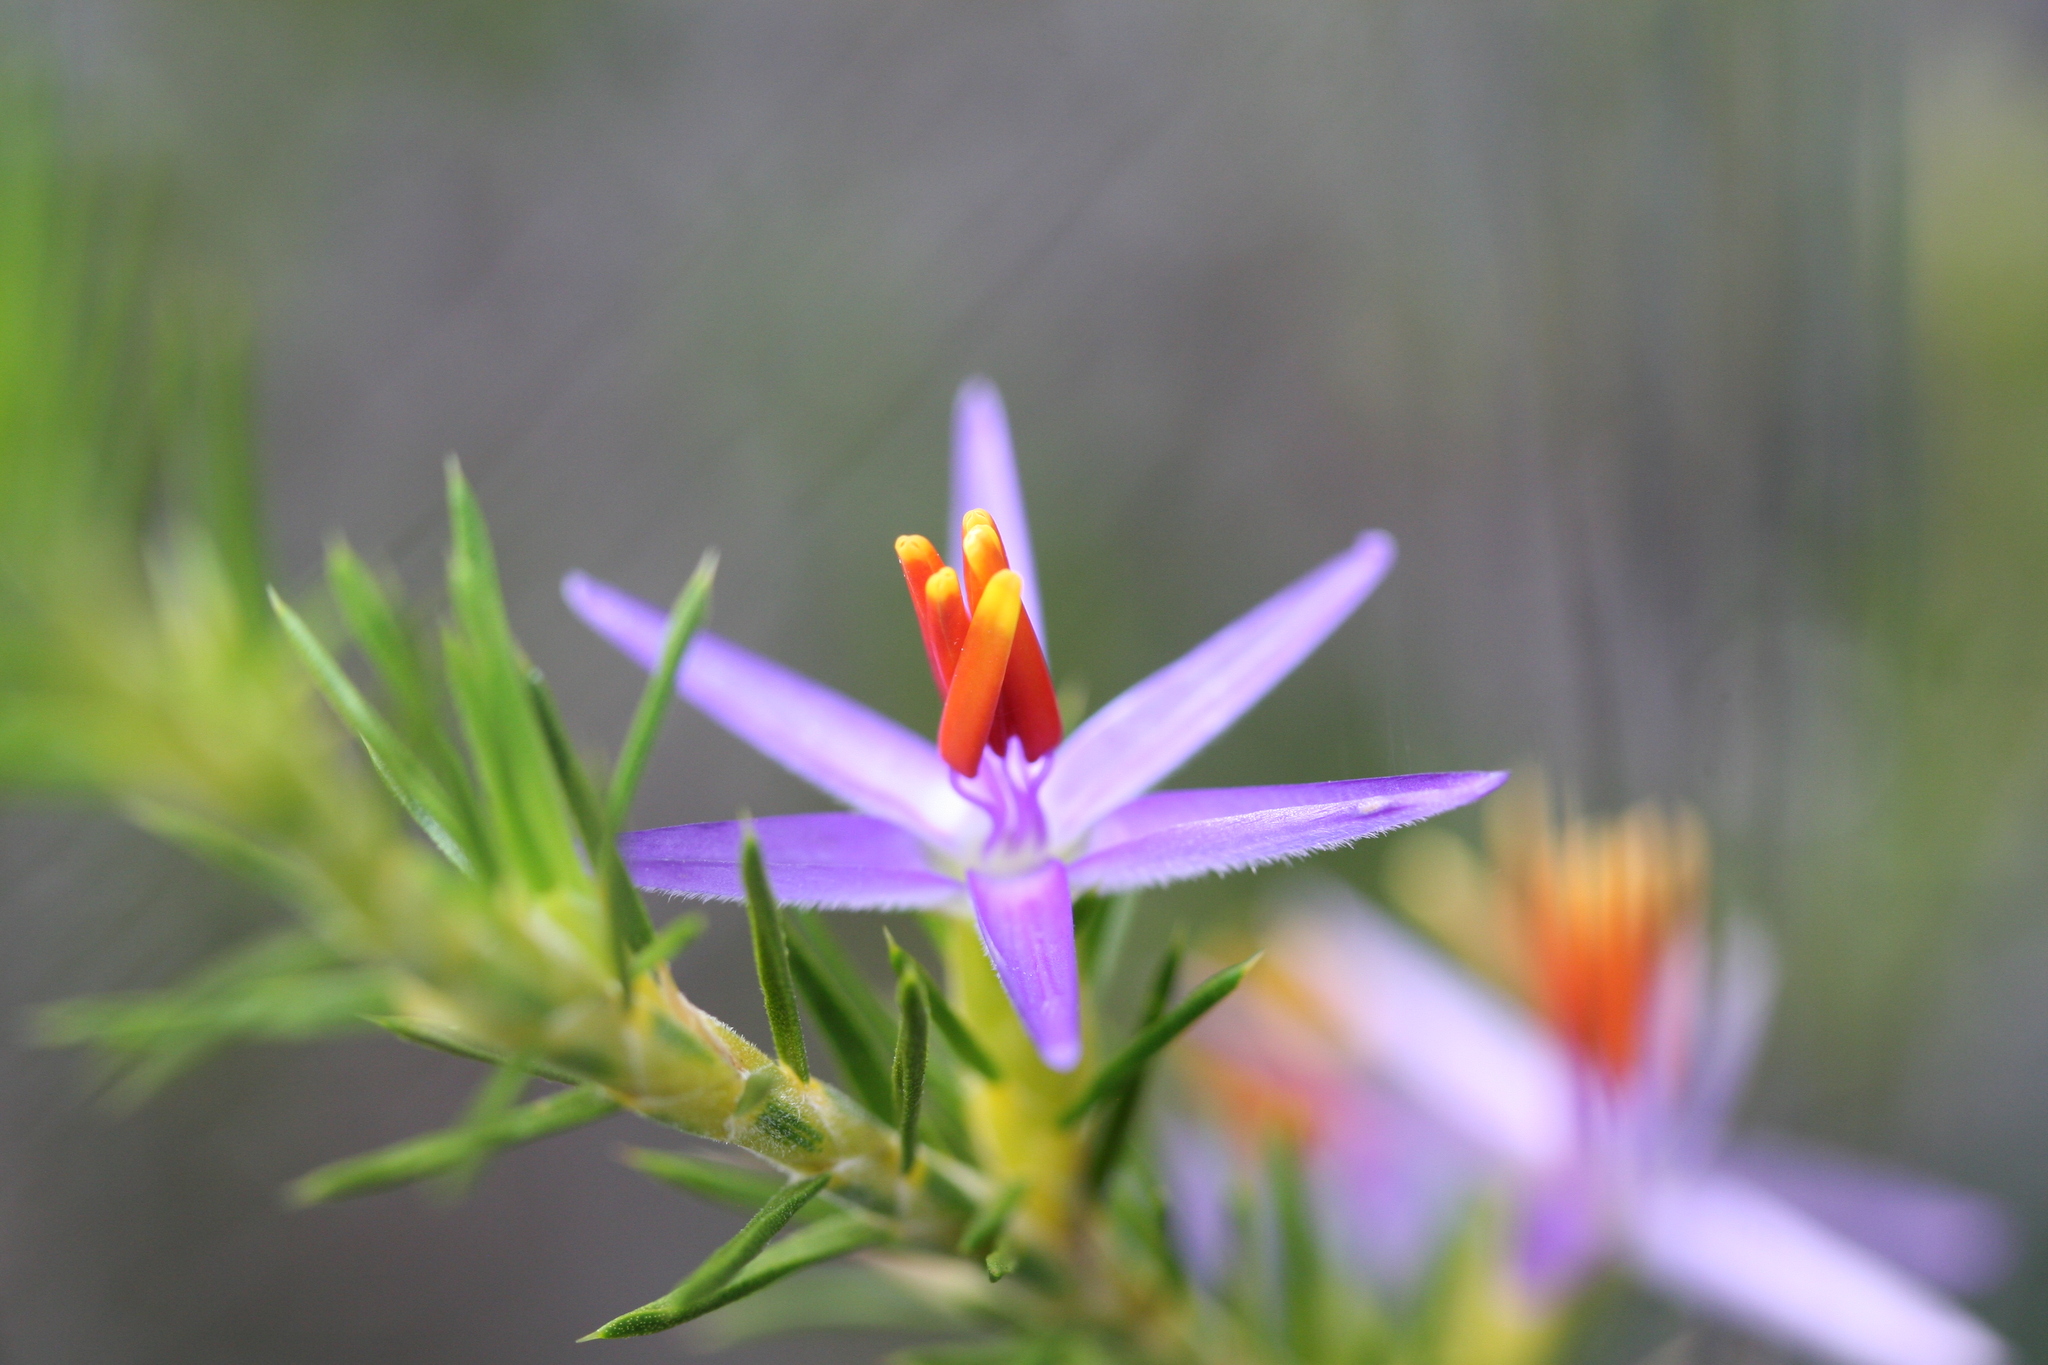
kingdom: Plantae
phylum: Tracheophyta
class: Liliopsida
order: Arecales
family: Dasypogonaceae
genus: Calectasia
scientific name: Calectasia narragara
